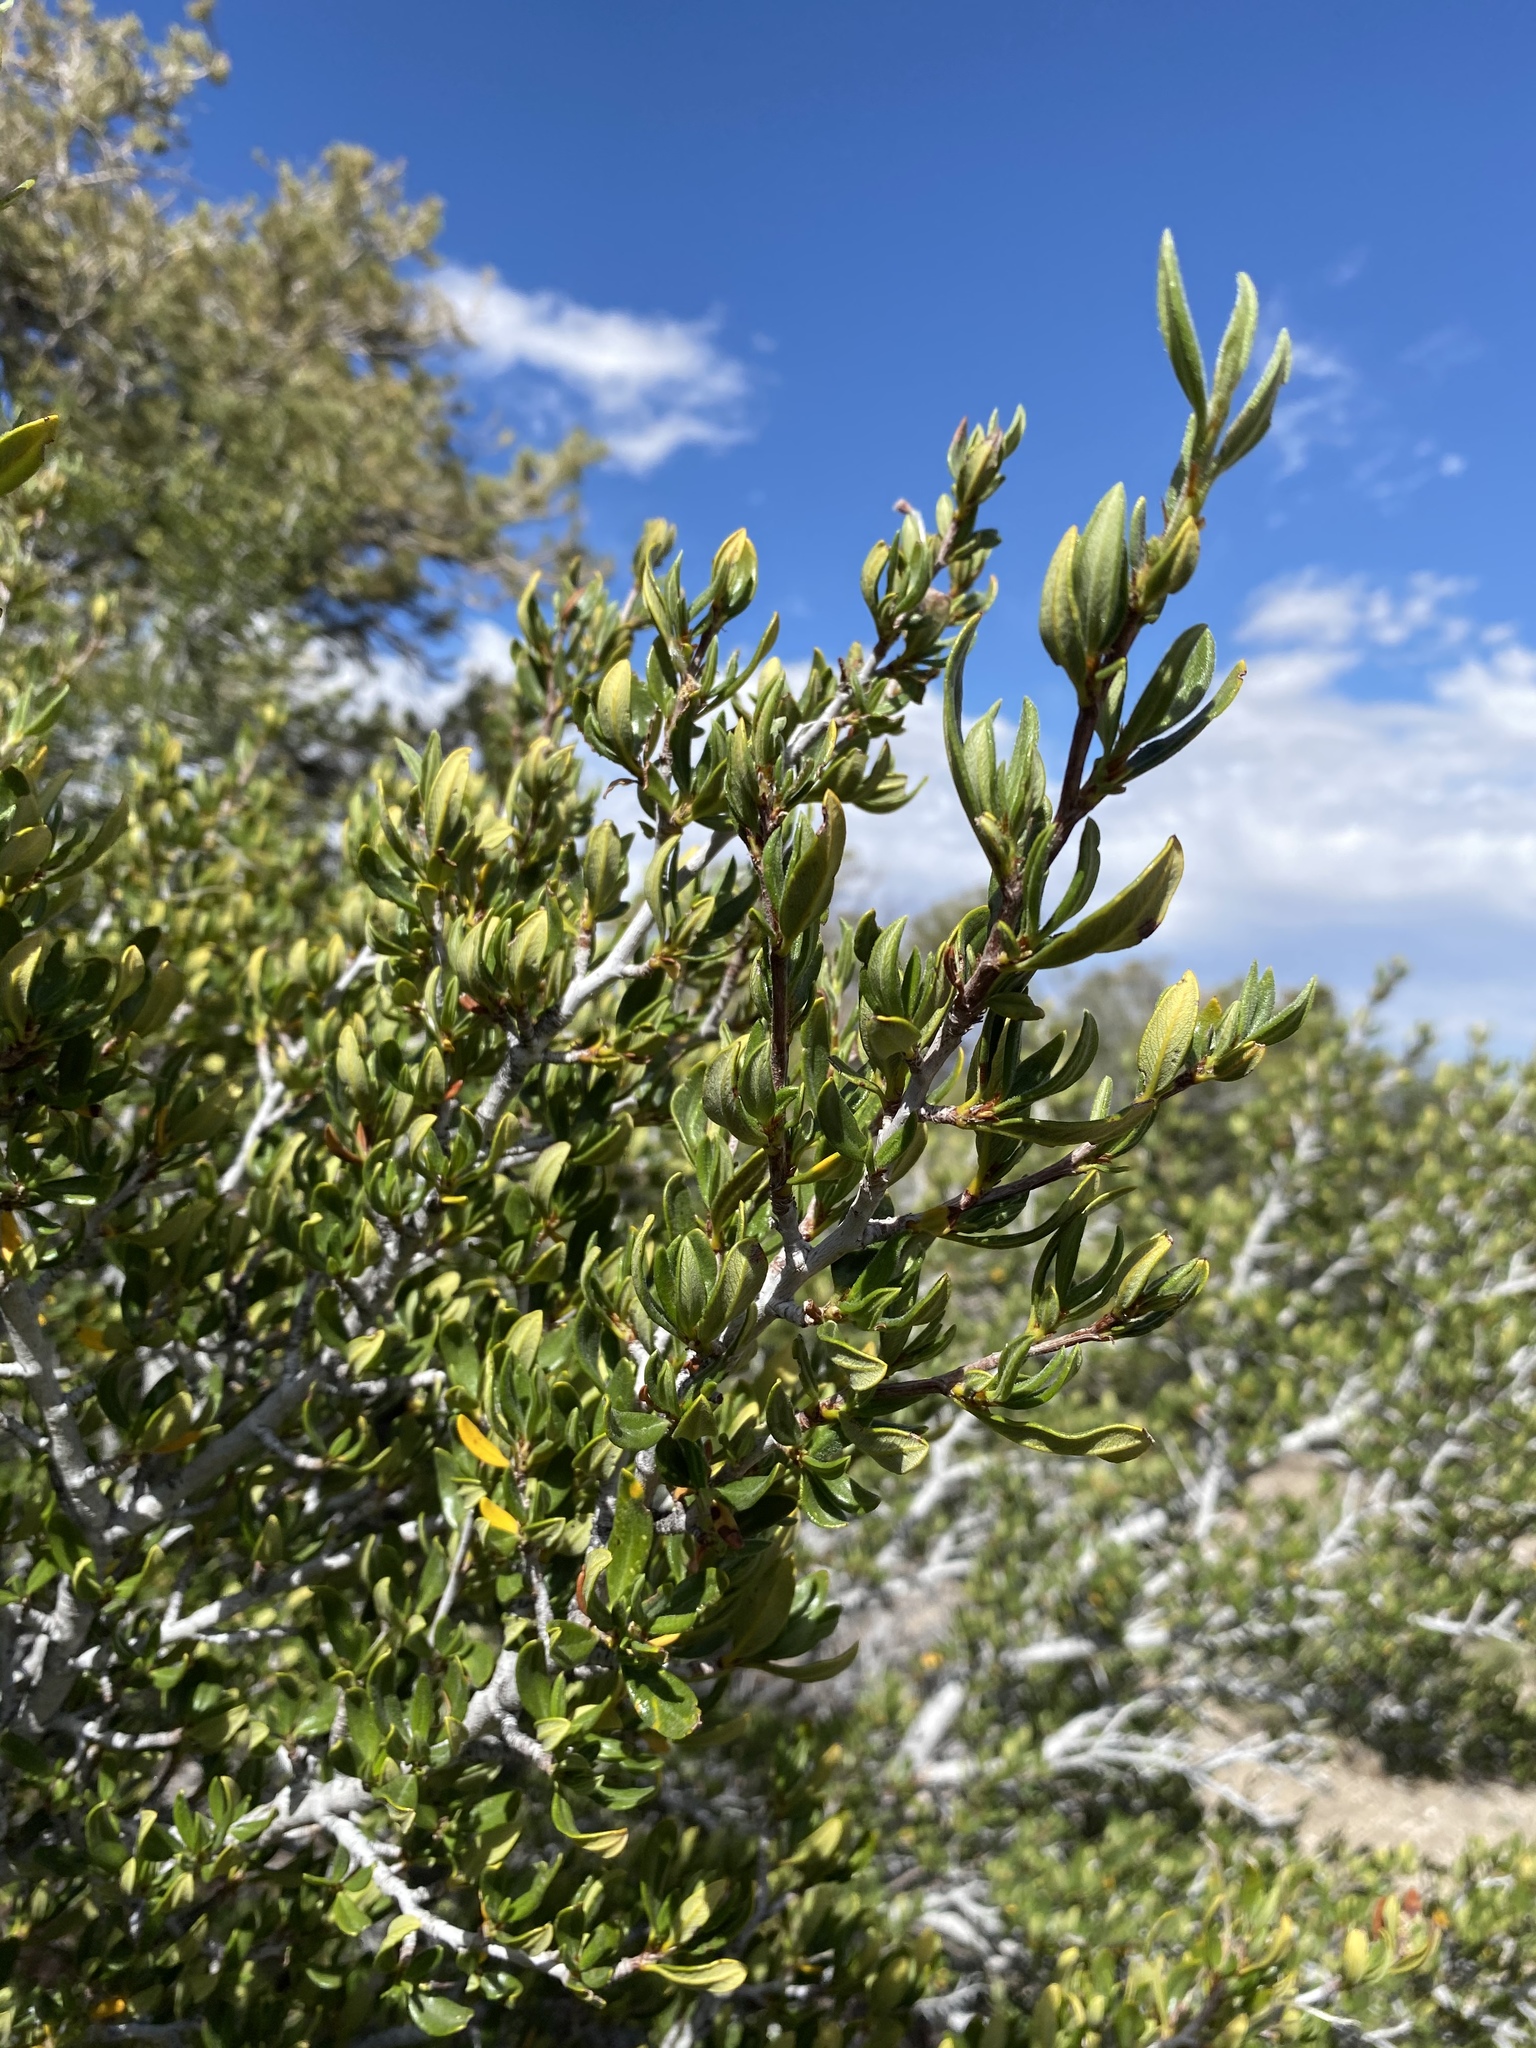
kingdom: Plantae
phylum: Tracheophyta
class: Magnoliopsida
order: Rosales
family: Rosaceae
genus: Cercocarpus
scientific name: Cercocarpus ledifolius
